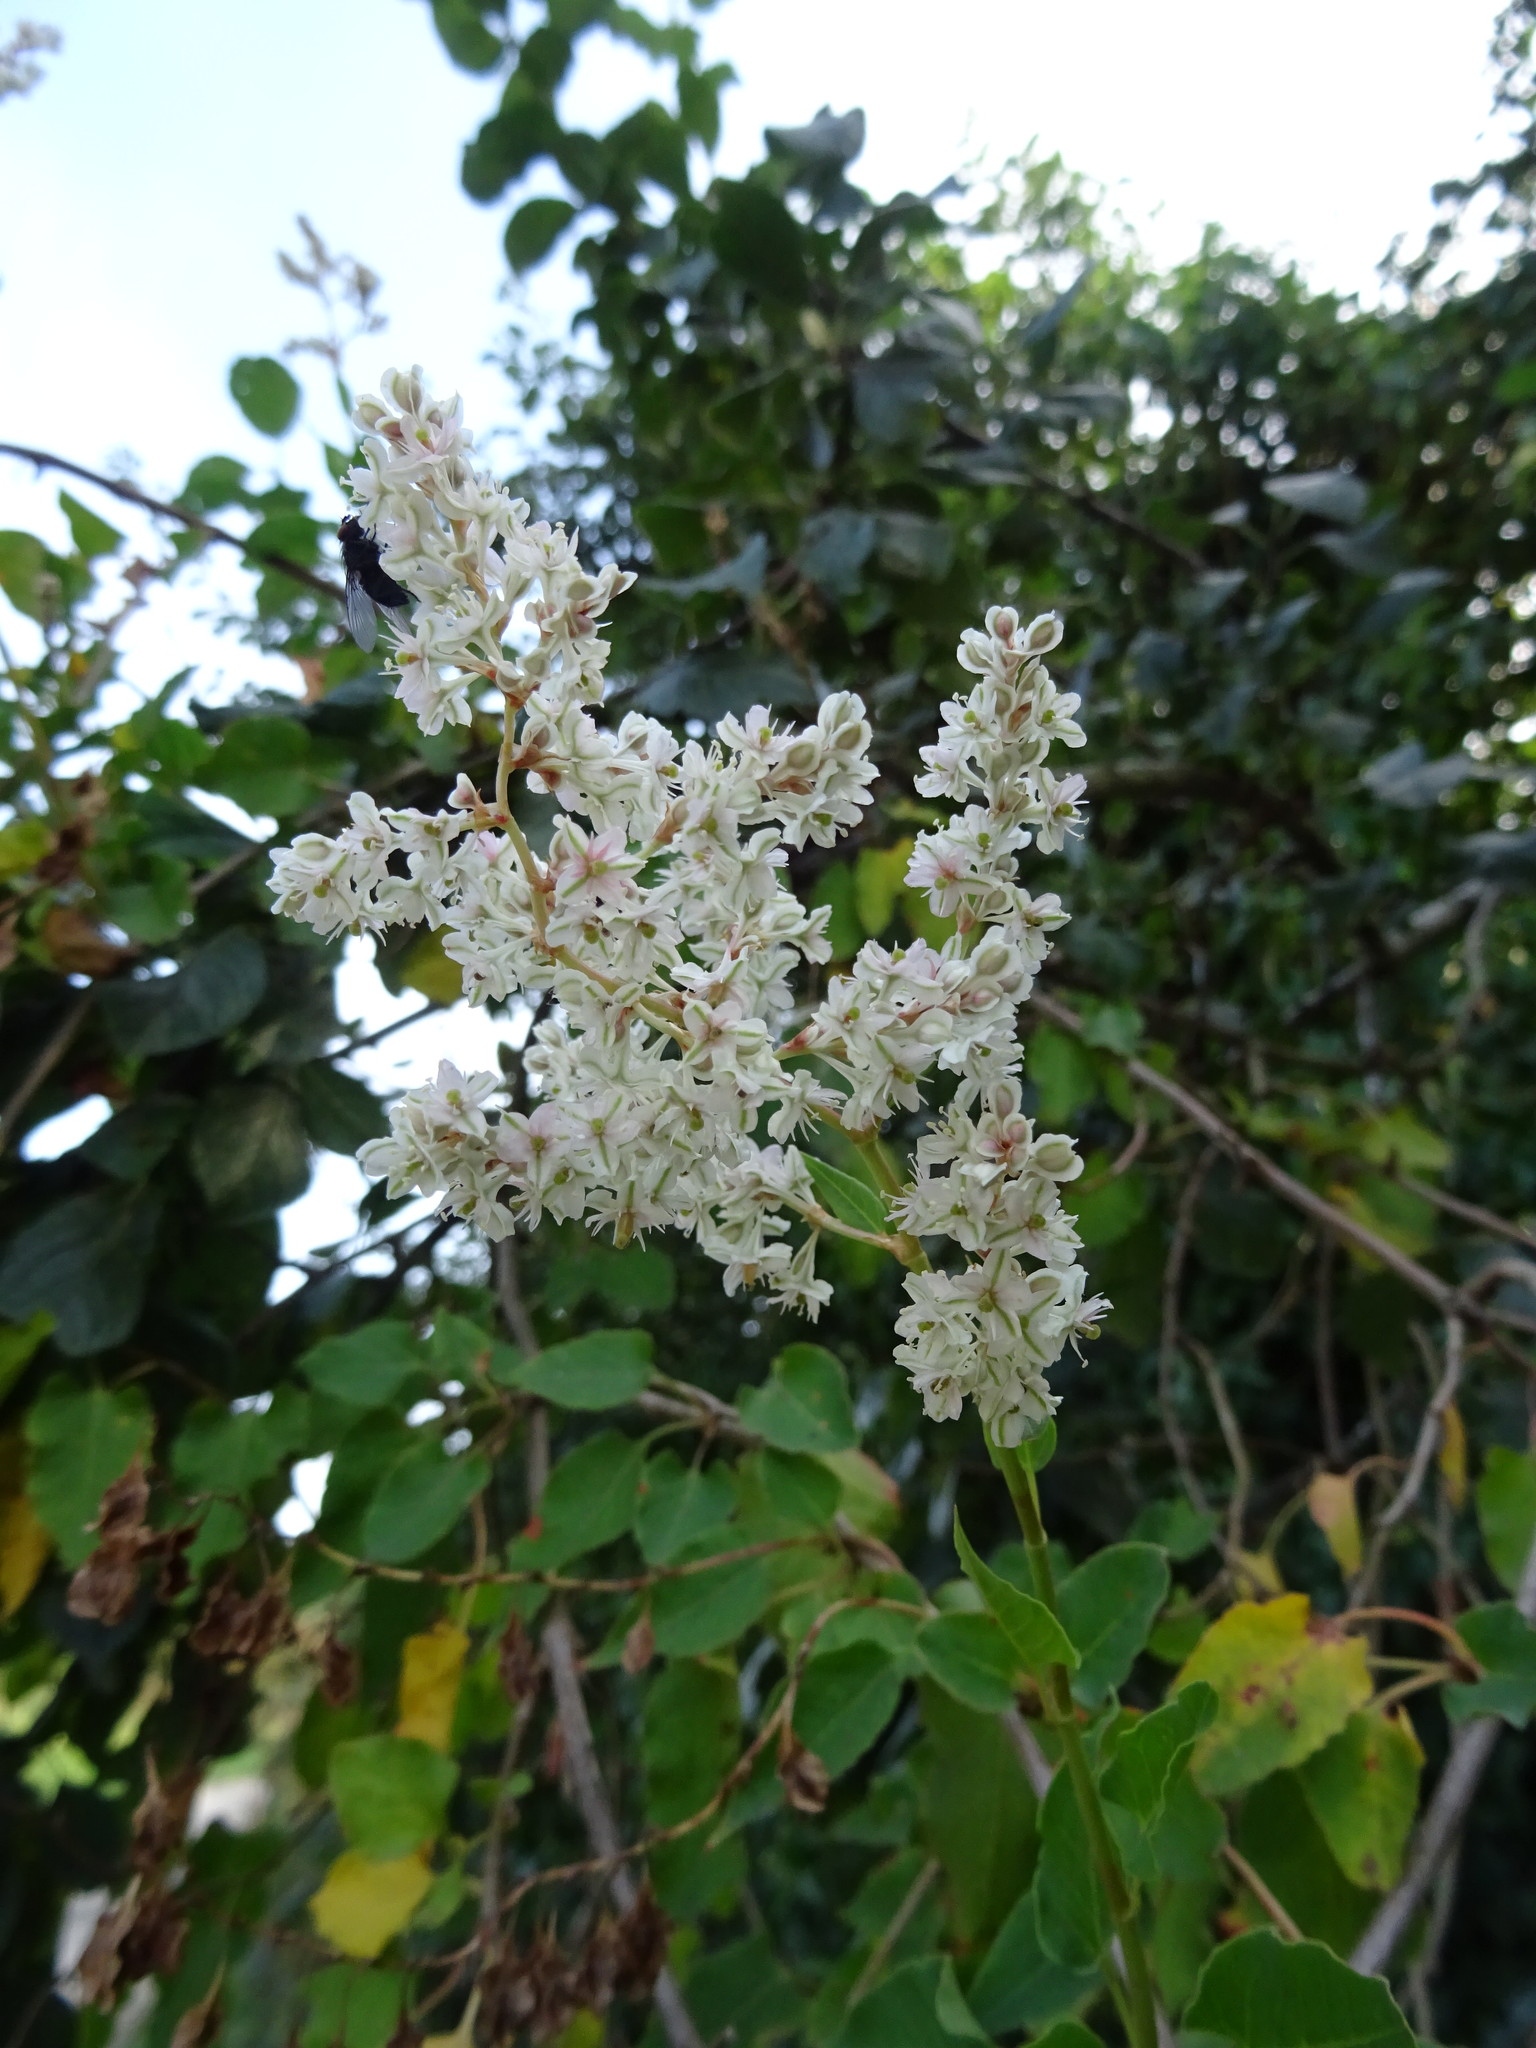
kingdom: Plantae
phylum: Tracheophyta
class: Magnoliopsida
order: Caryophyllales
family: Polygonaceae
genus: Fallopia
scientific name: Fallopia baldschuanica
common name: Russian-vine
